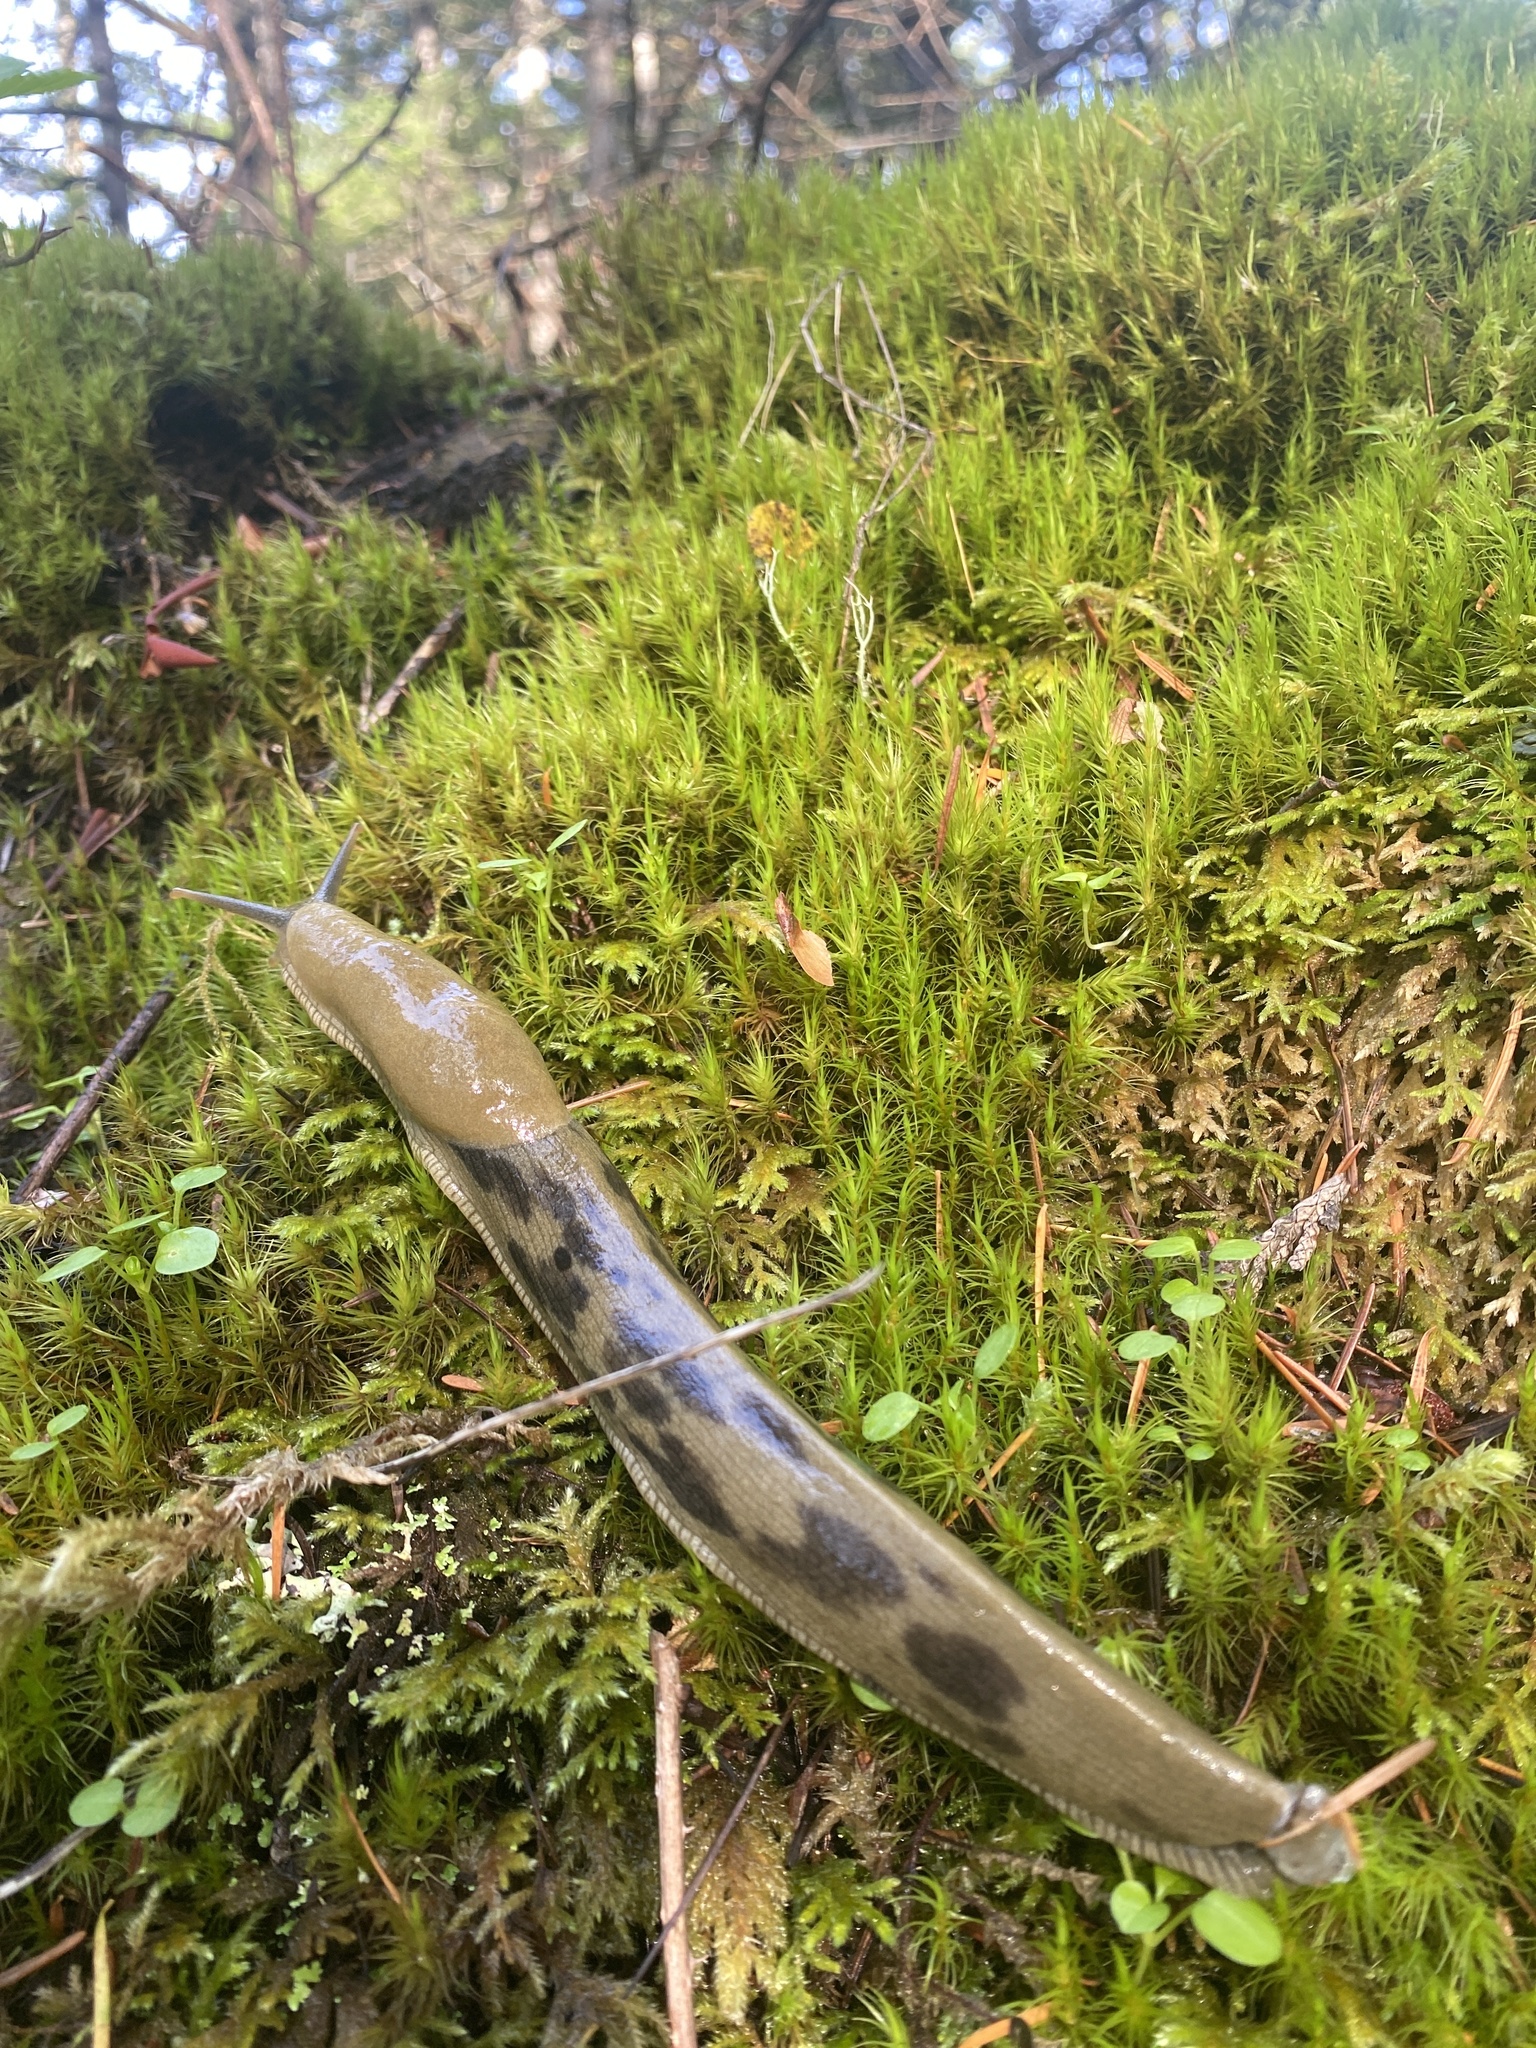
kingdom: Animalia
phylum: Mollusca
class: Gastropoda
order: Stylommatophora
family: Ariolimacidae
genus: Ariolimax
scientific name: Ariolimax columbianus
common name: Pacific banana slug
